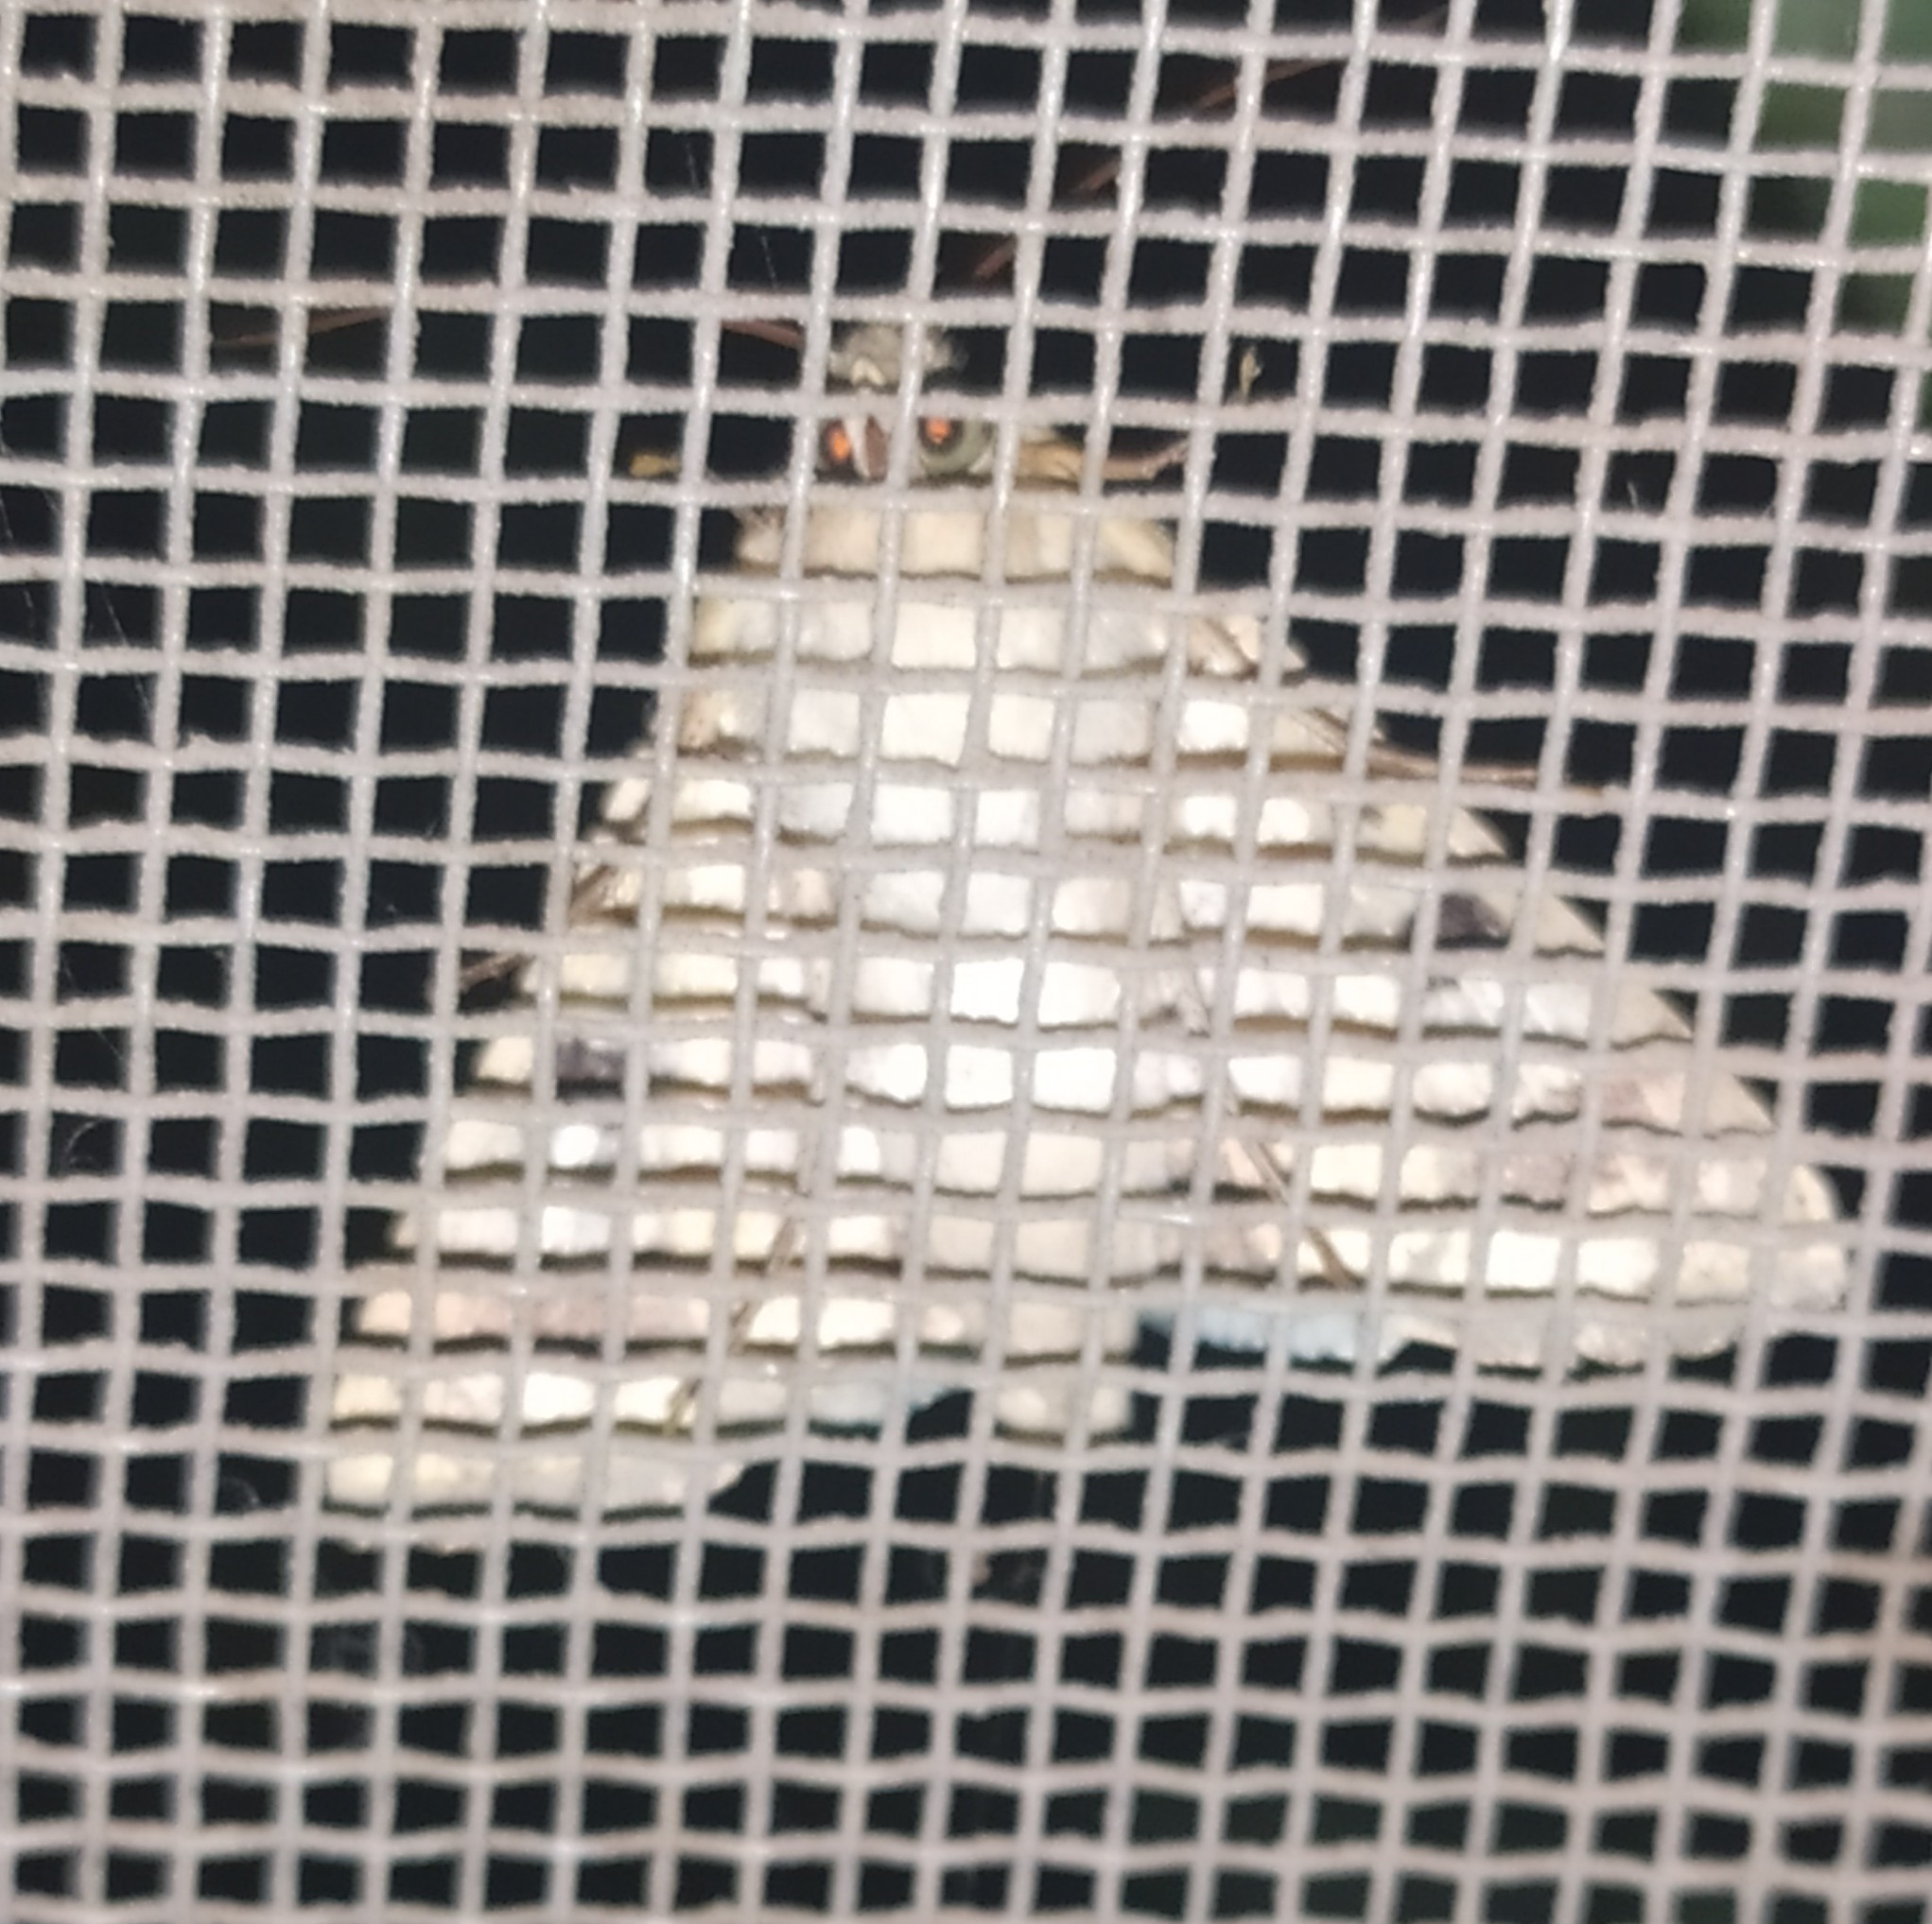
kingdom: Animalia
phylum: Arthropoda
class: Insecta
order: Lepidoptera
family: Noctuidae
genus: Helicoverpa
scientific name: Helicoverpa armigera
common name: Cotton bollworm
